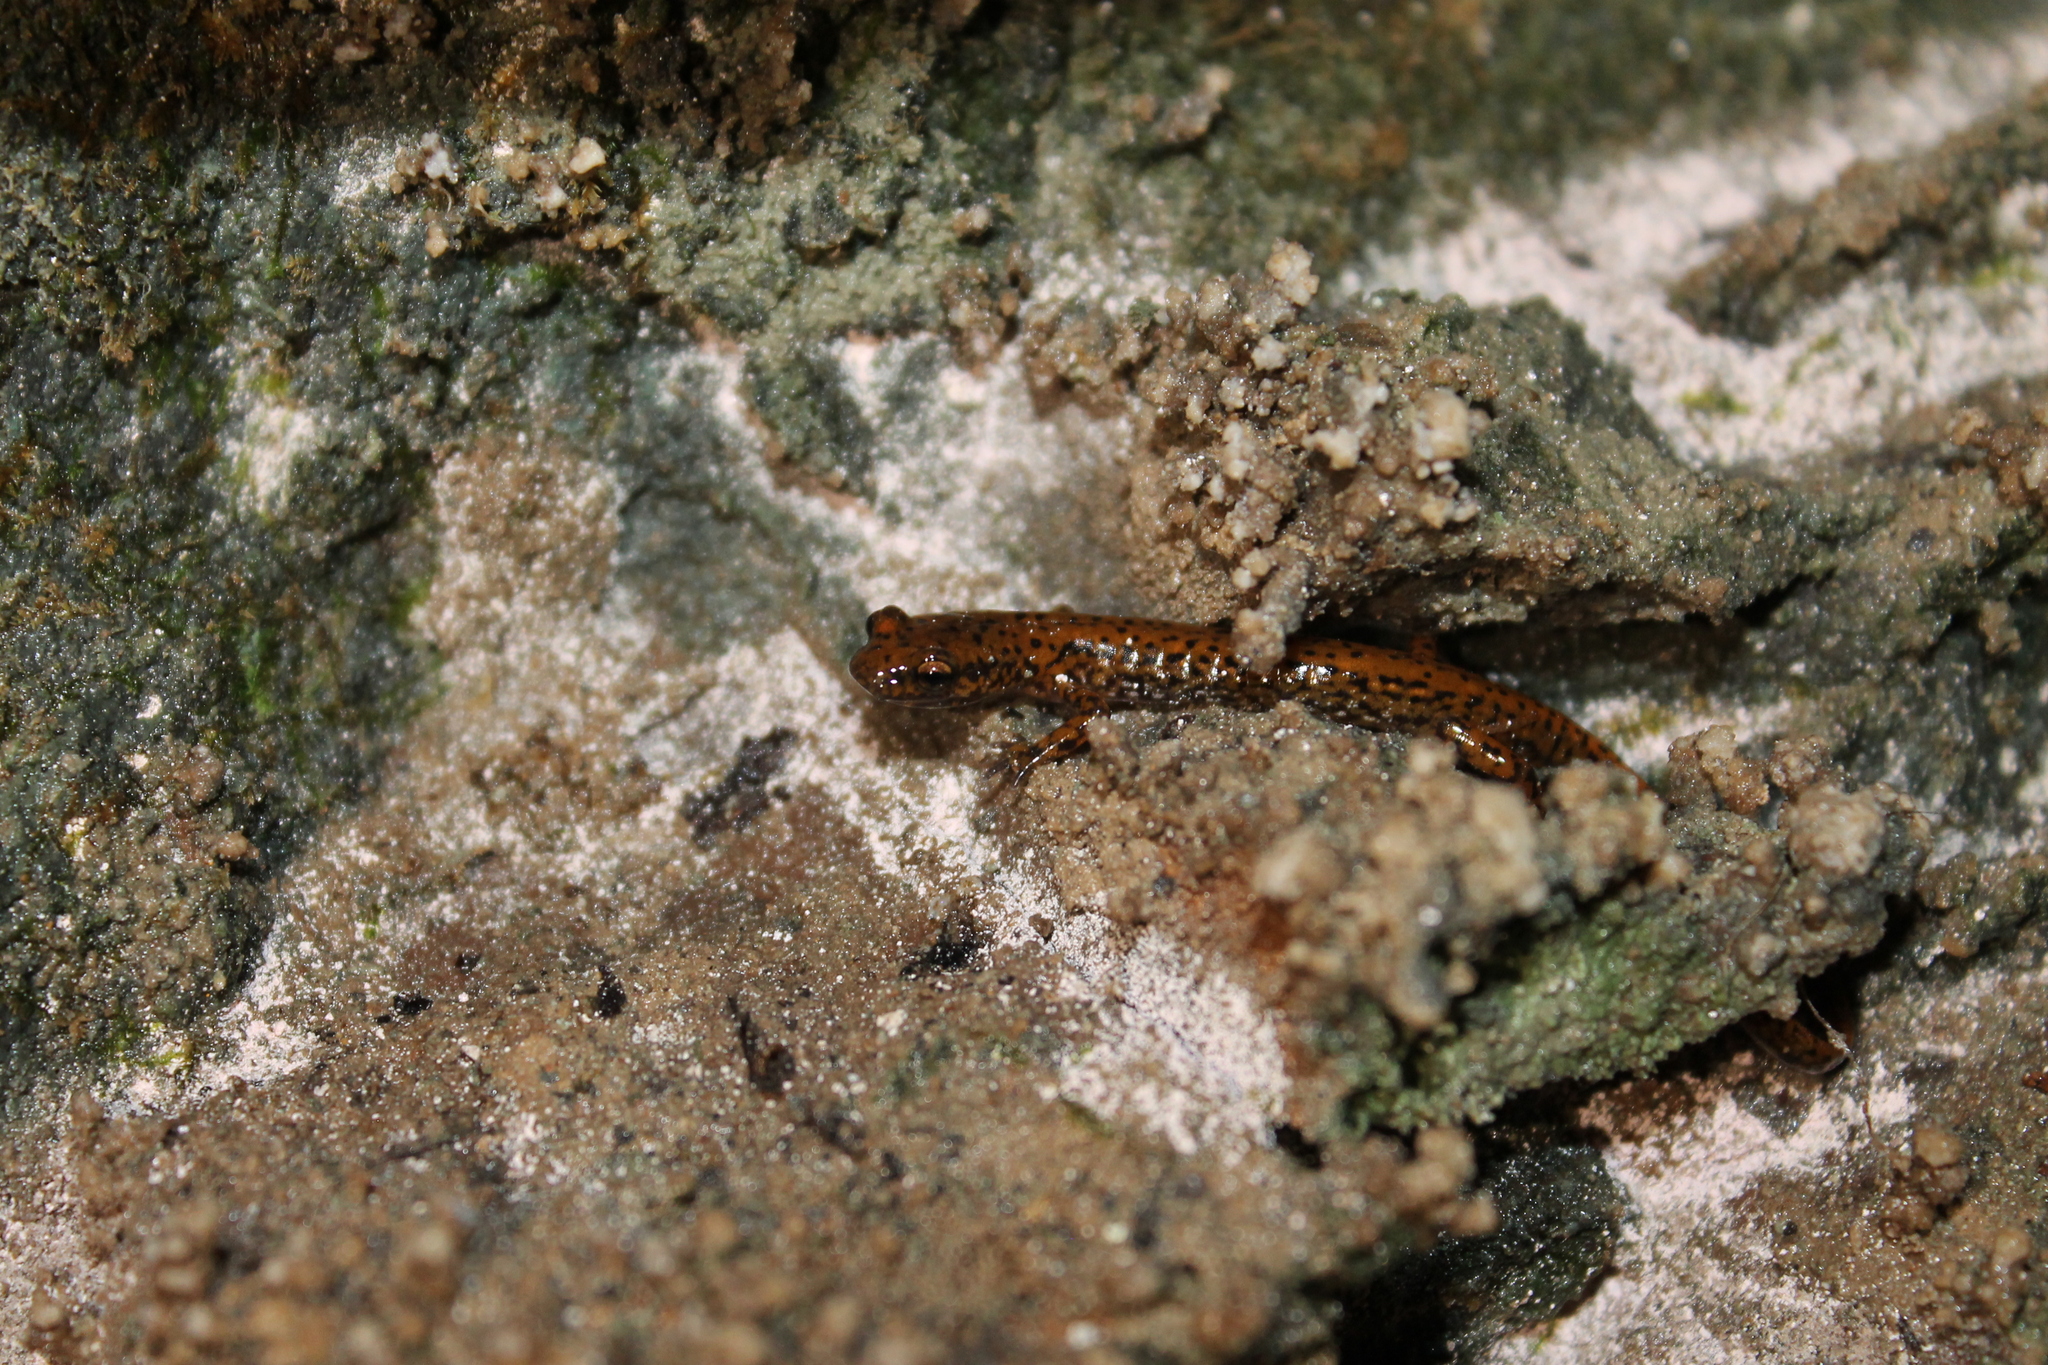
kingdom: Animalia
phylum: Chordata
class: Amphibia
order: Caudata
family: Plethodontidae
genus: Eurycea
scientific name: Eurycea lucifuga
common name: Cave salamander
